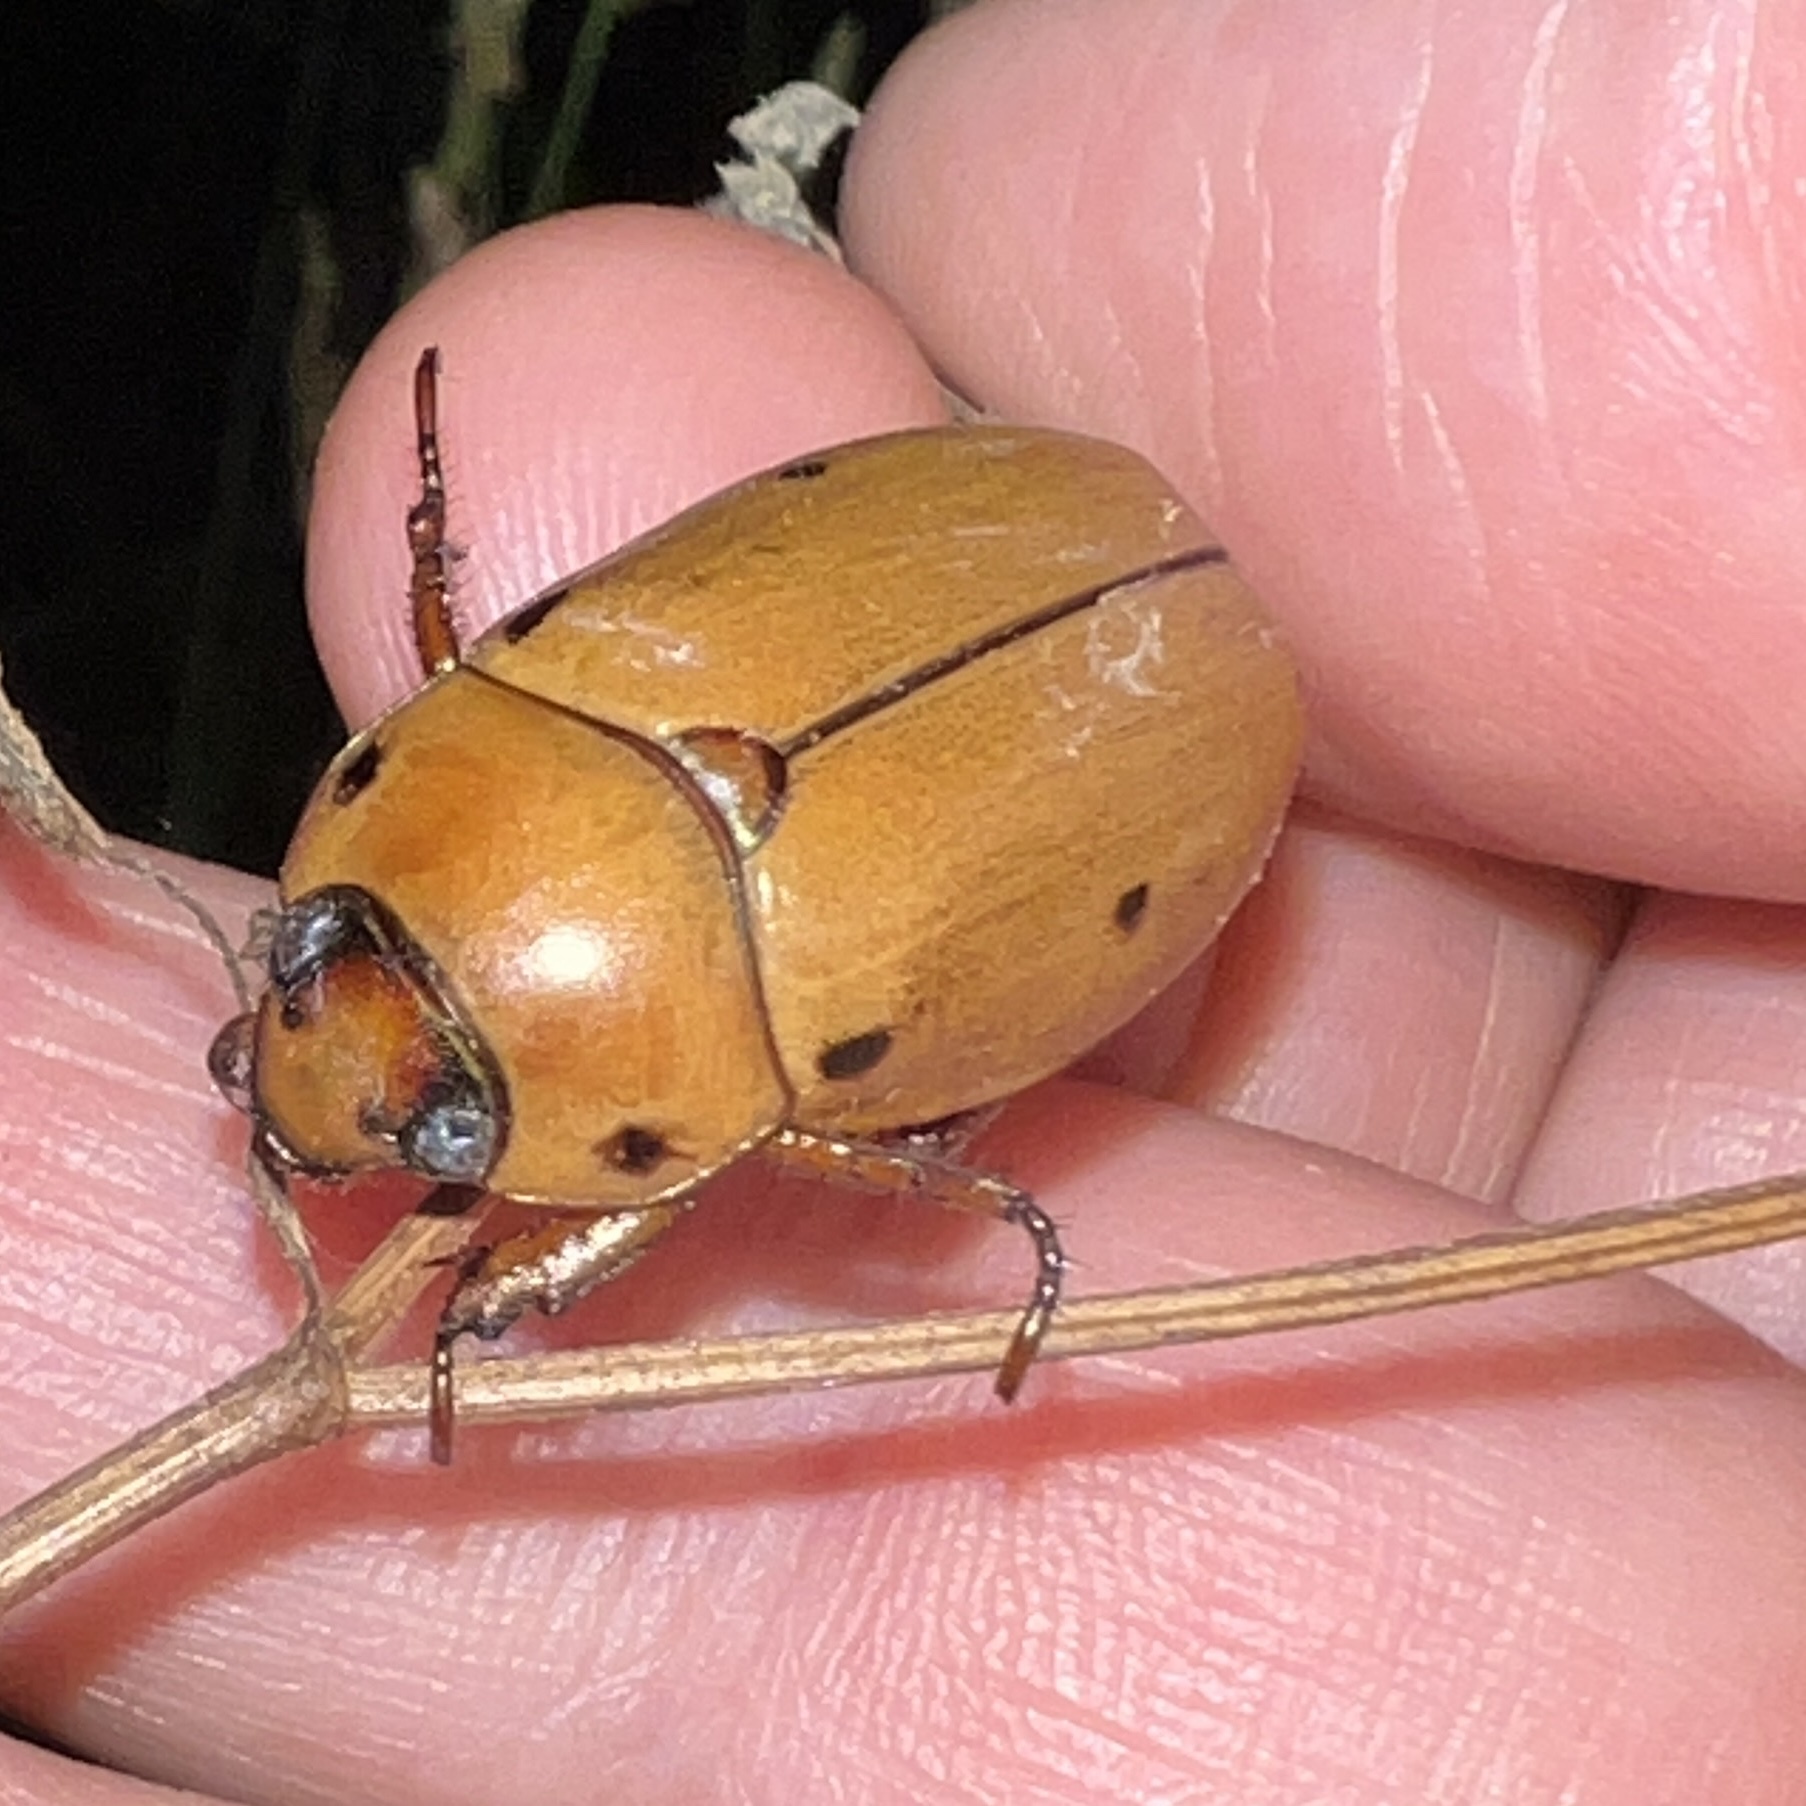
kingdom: Animalia
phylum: Arthropoda
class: Insecta
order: Coleoptera
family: Scarabaeidae
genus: Pelidnota
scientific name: Pelidnota punctata
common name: Grapevine beetle
